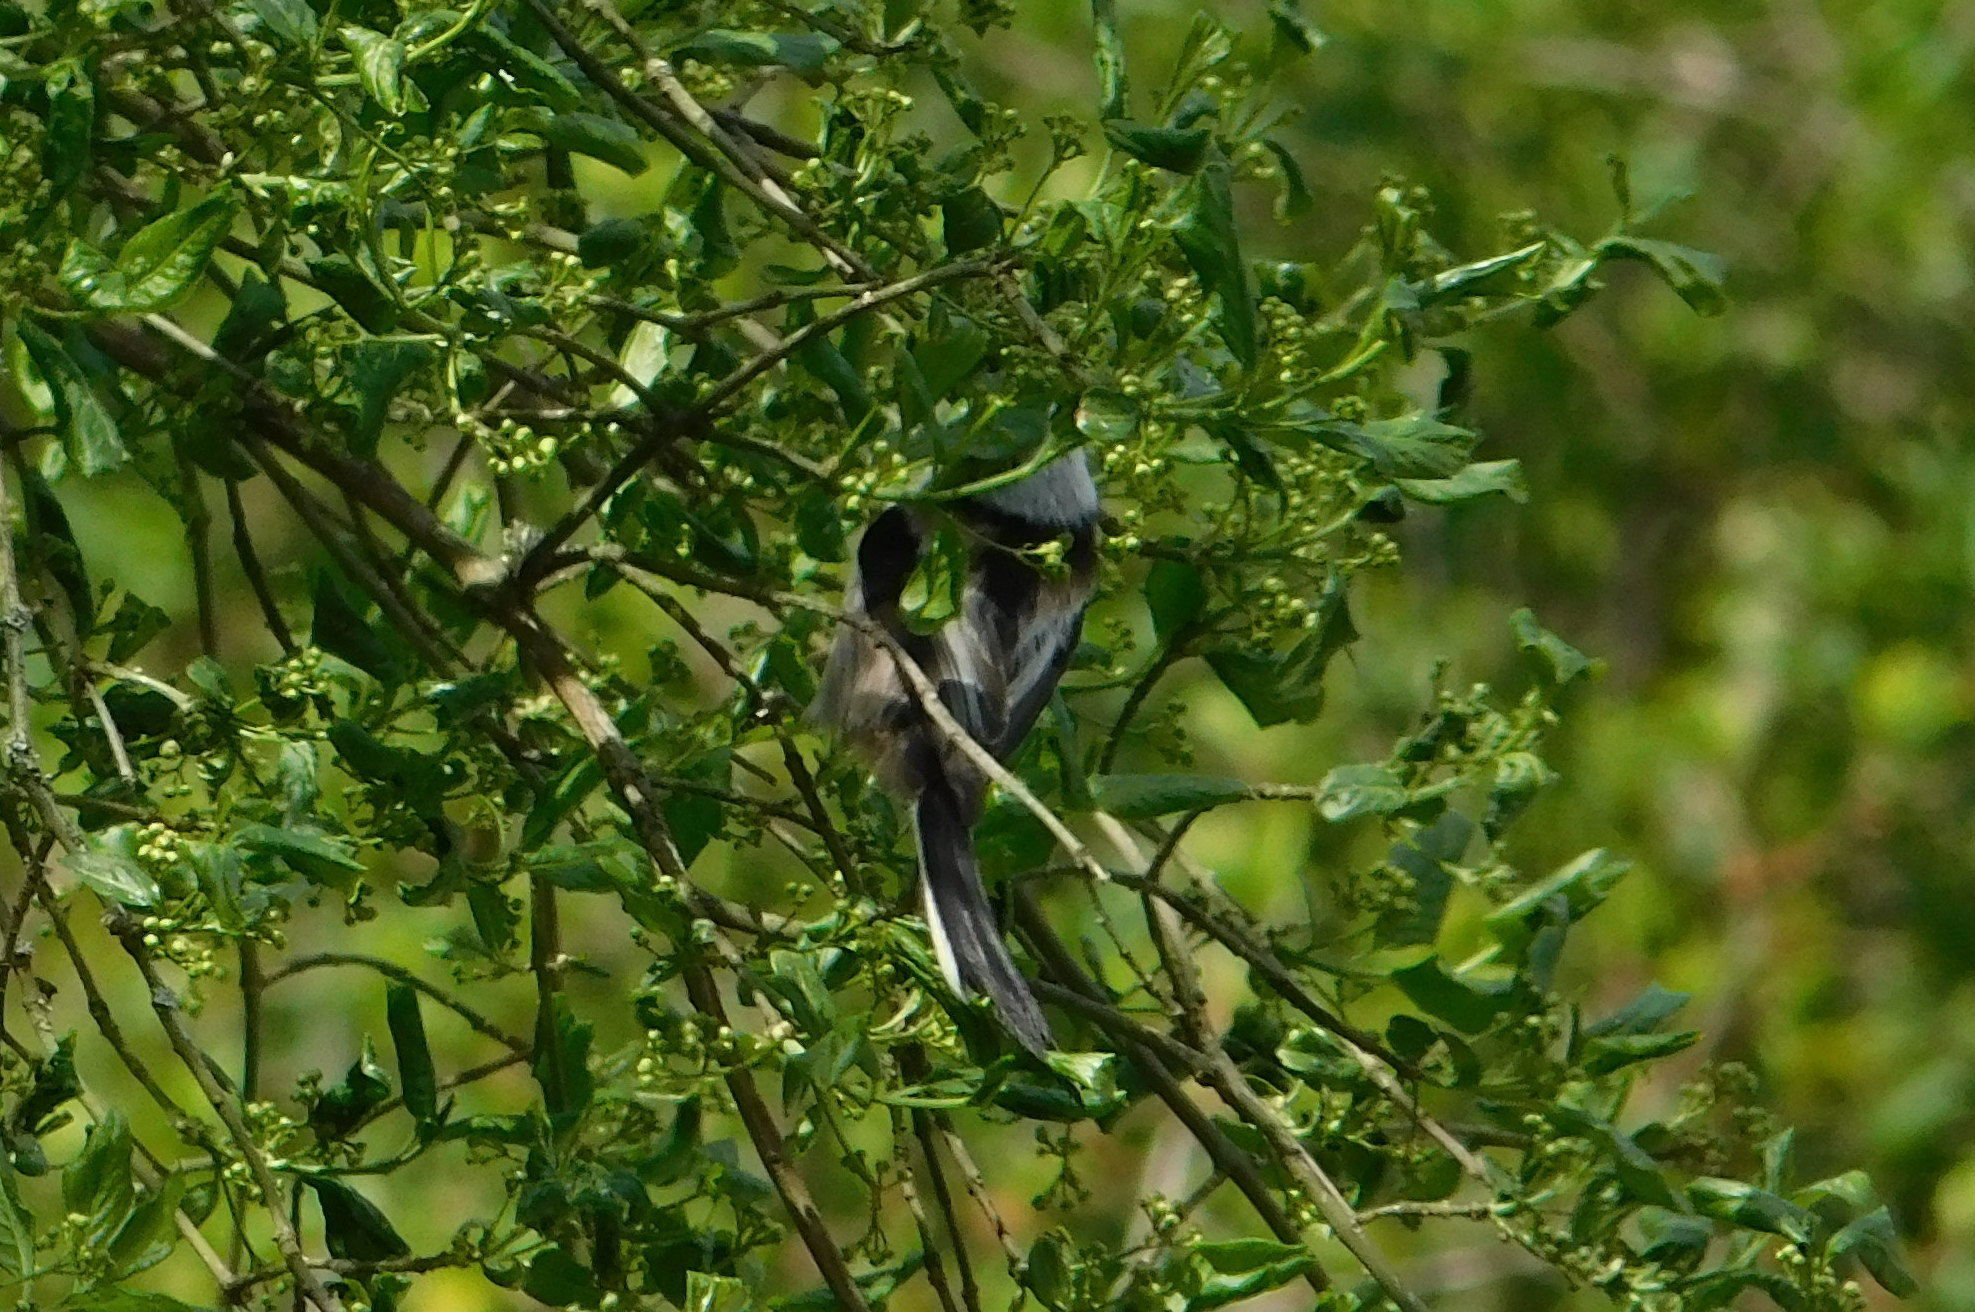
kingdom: Animalia
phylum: Chordata
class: Aves
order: Passeriformes
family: Aegithalidae
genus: Aegithalos
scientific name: Aegithalos caudatus
